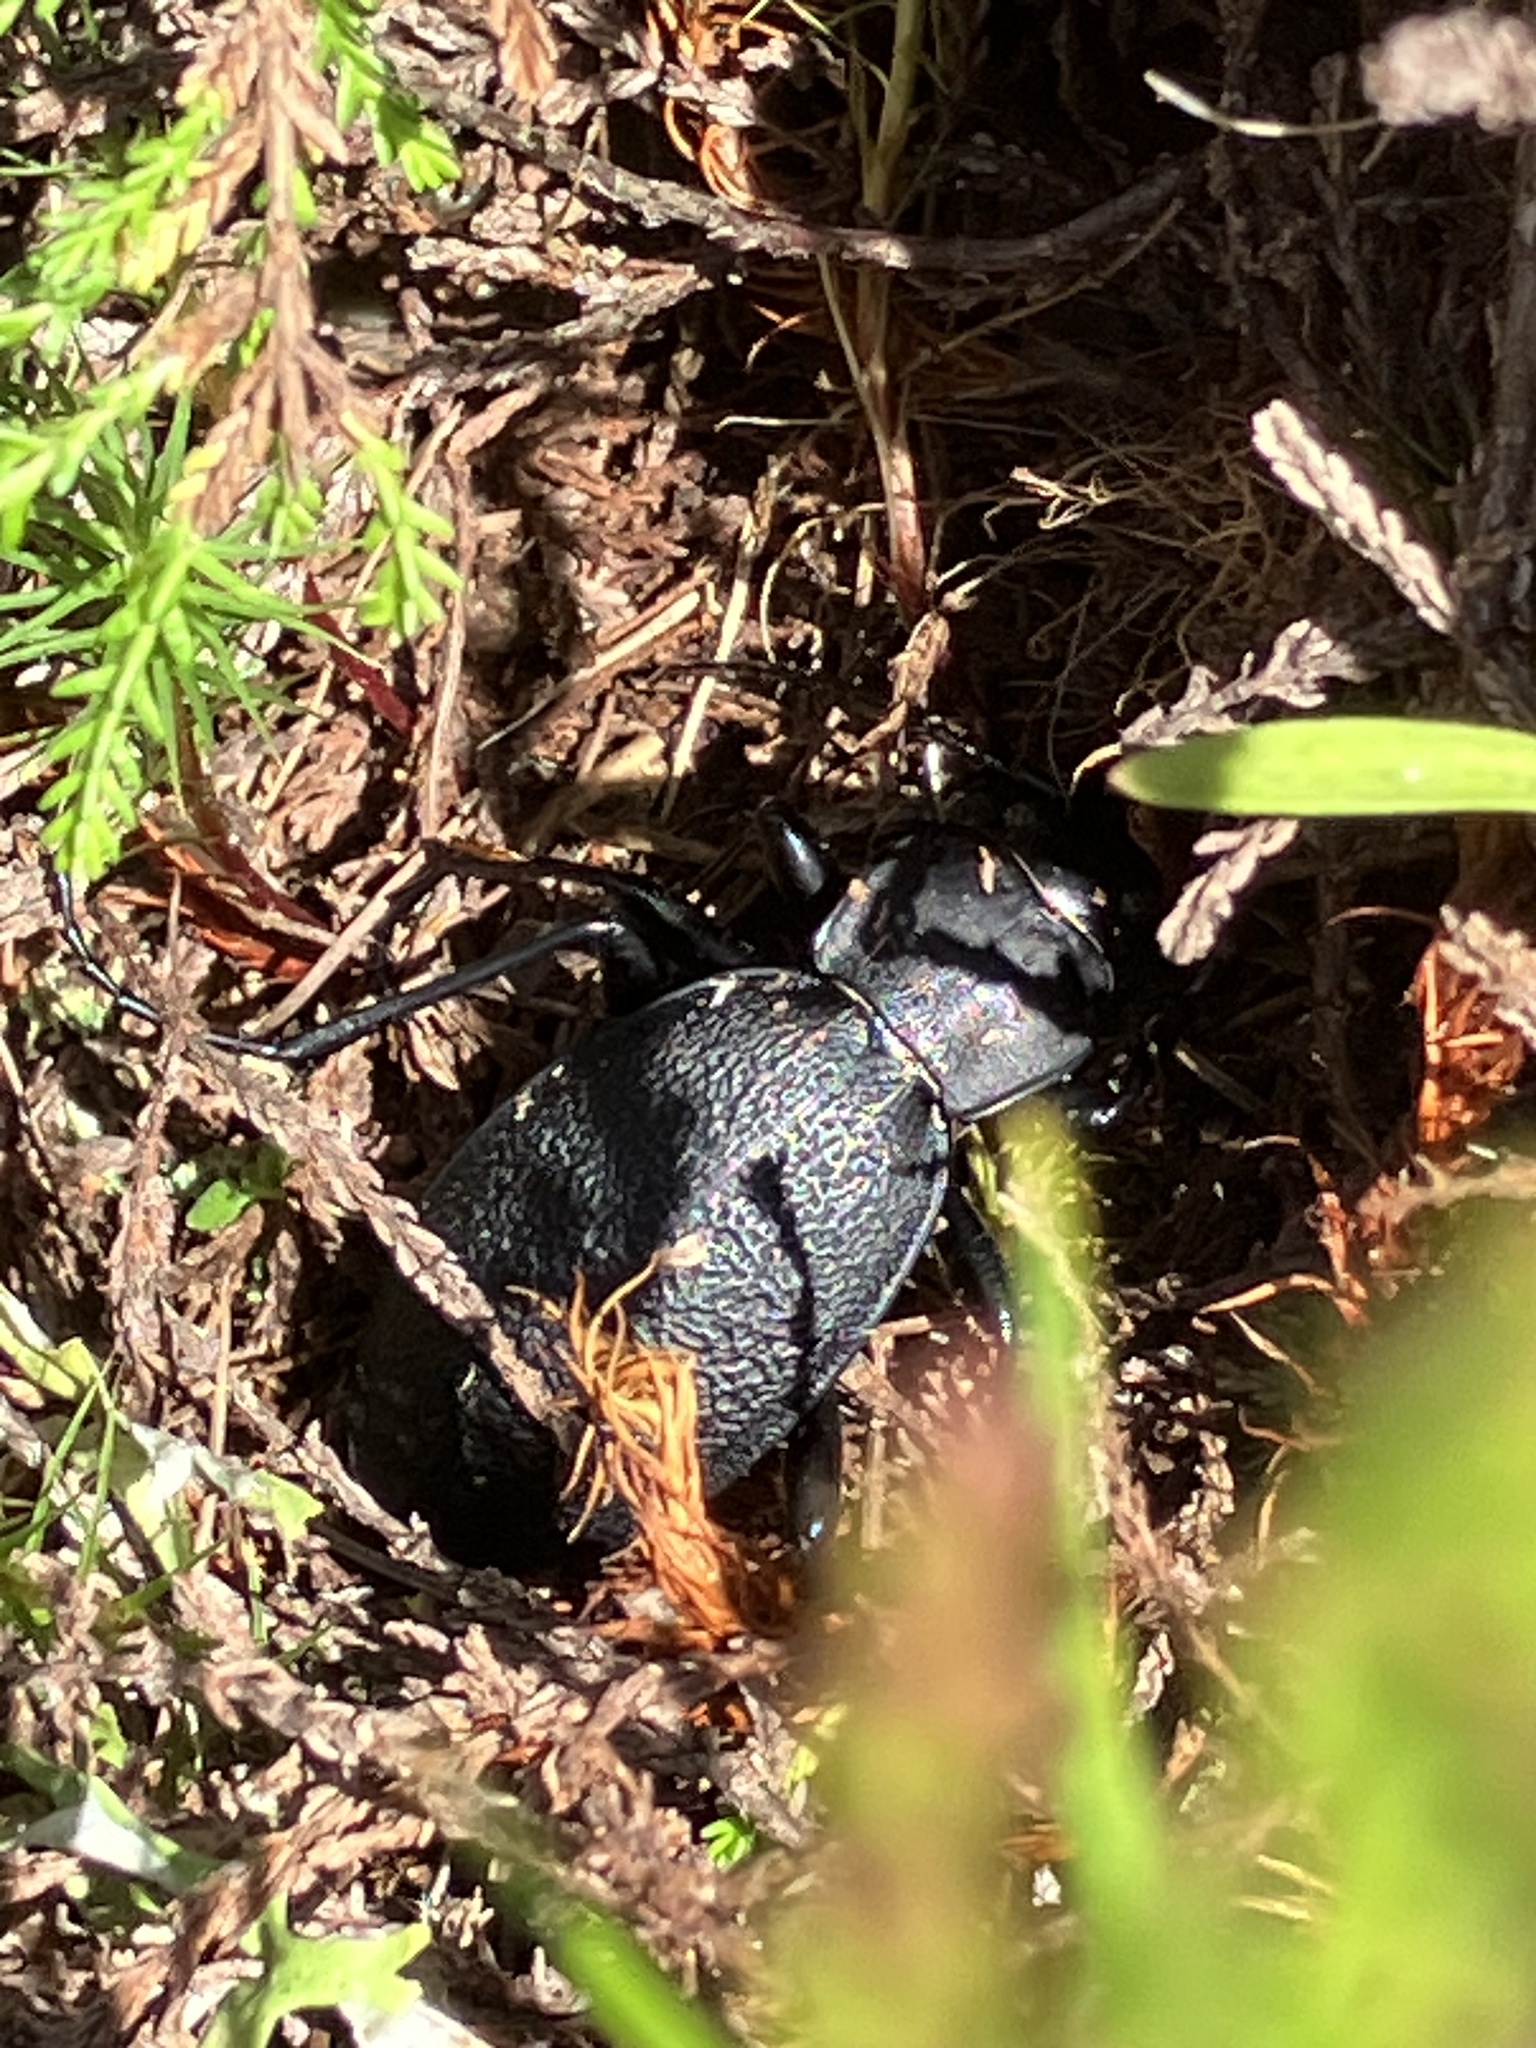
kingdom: Animalia
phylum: Arthropoda
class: Insecta
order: Coleoptera
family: Carabidae
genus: Carabus
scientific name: Carabus coriaceus
